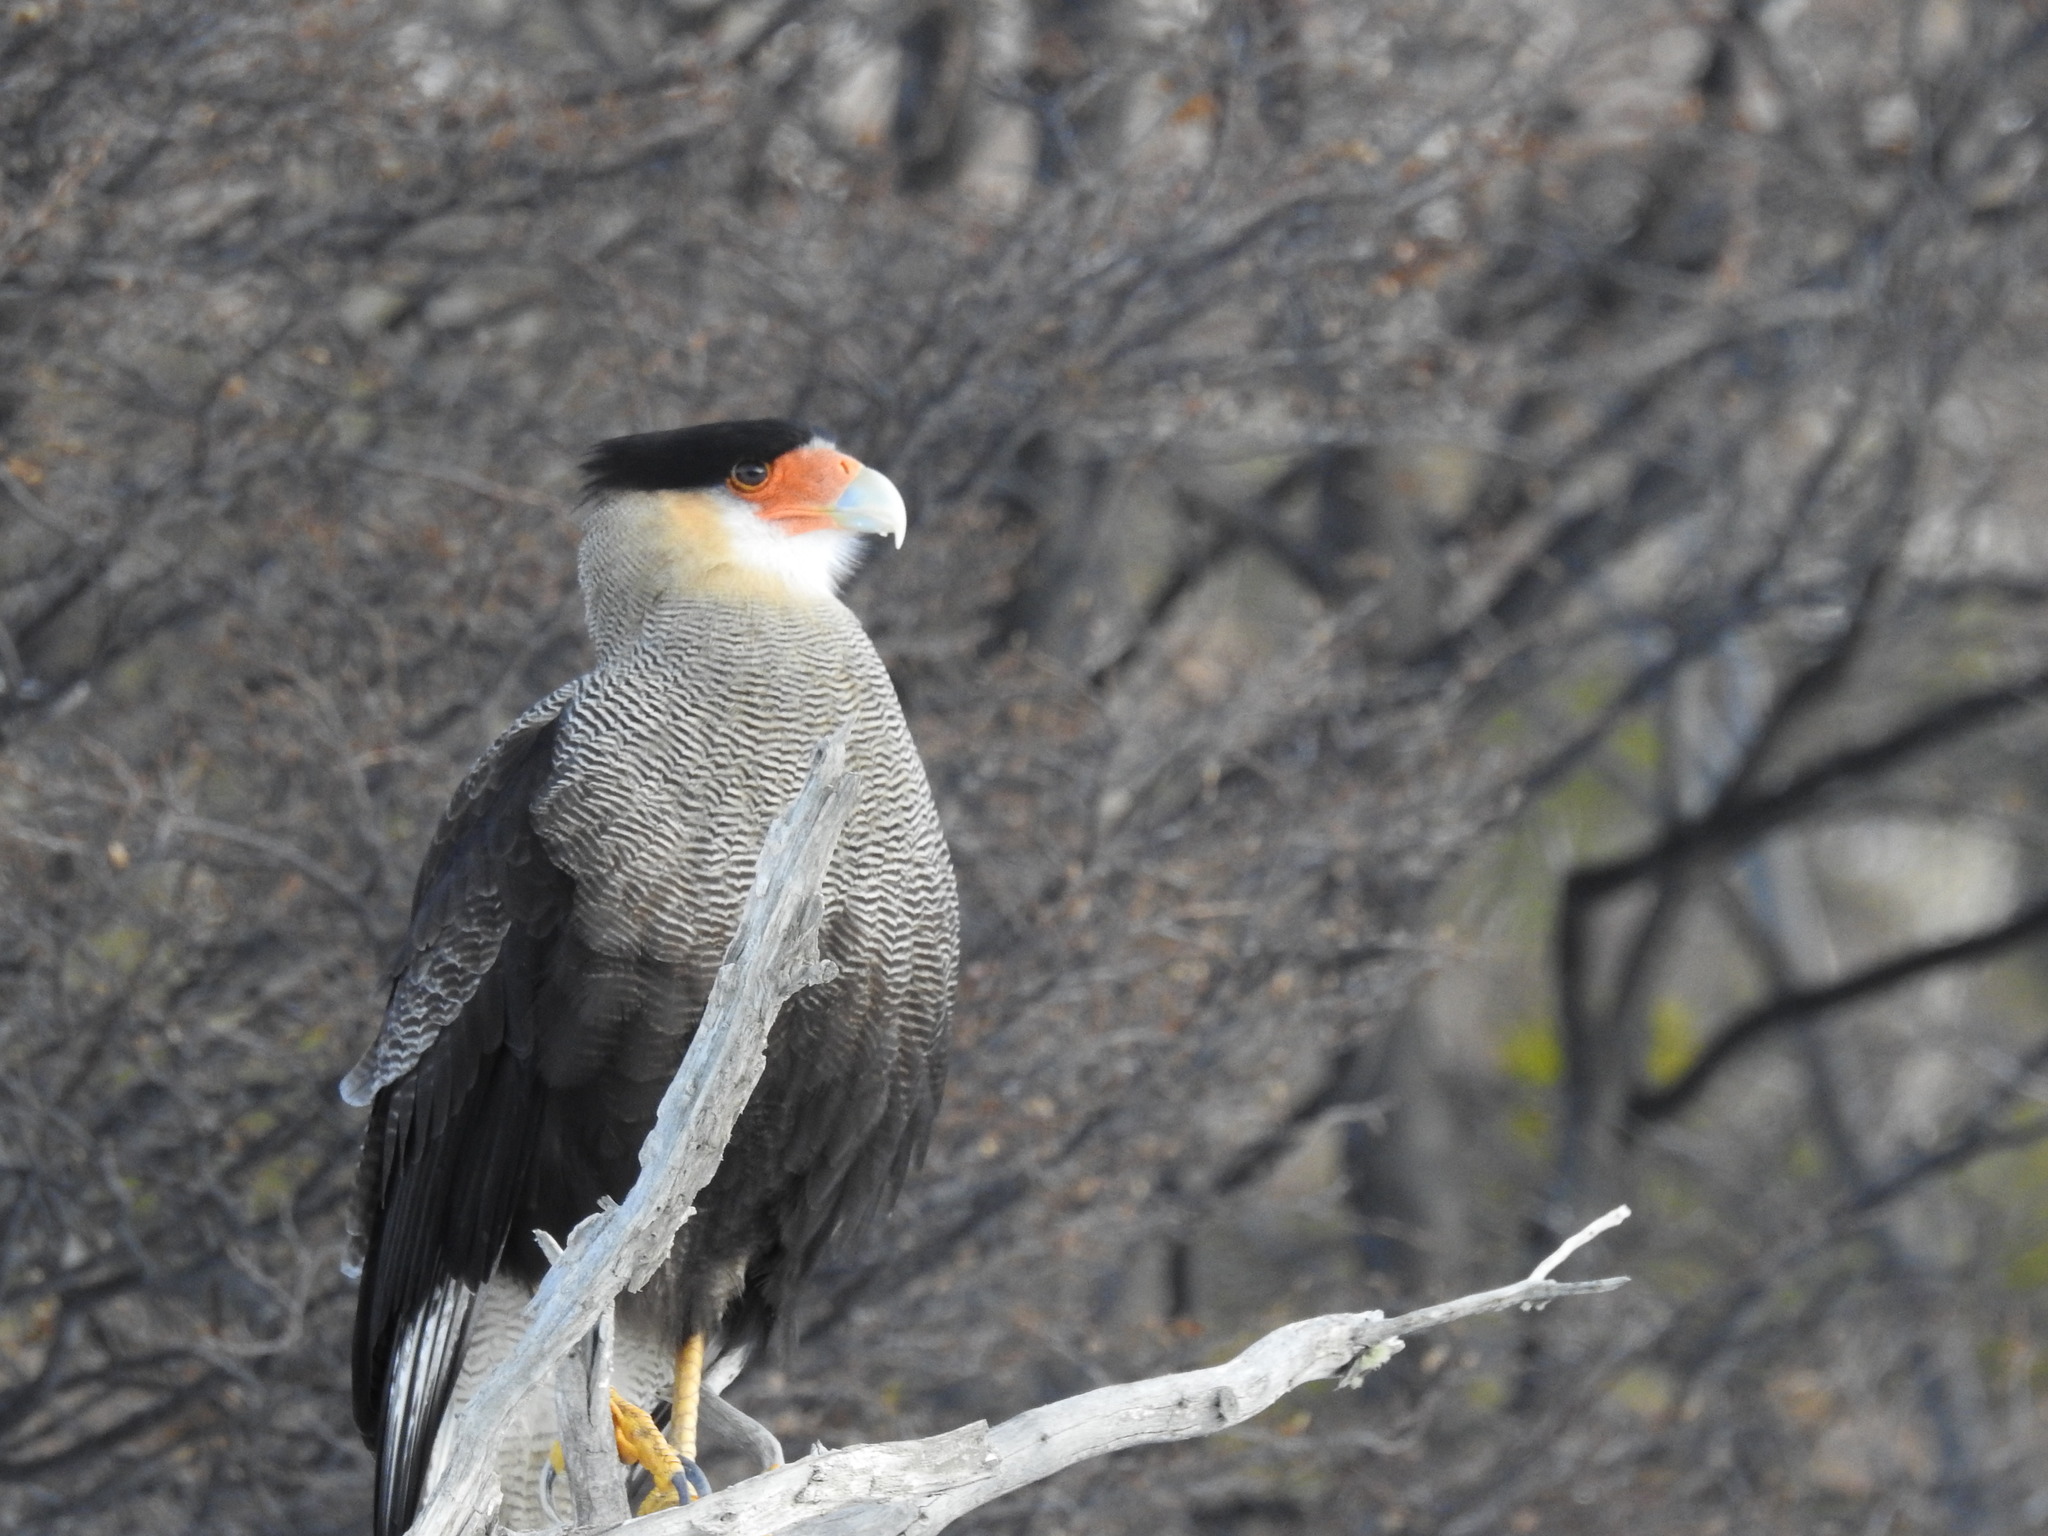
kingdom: Animalia
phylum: Chordata
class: Aves
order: Falconiformes
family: Falconidae
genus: Caracara
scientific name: Caracara plancus
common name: Southern caracara
